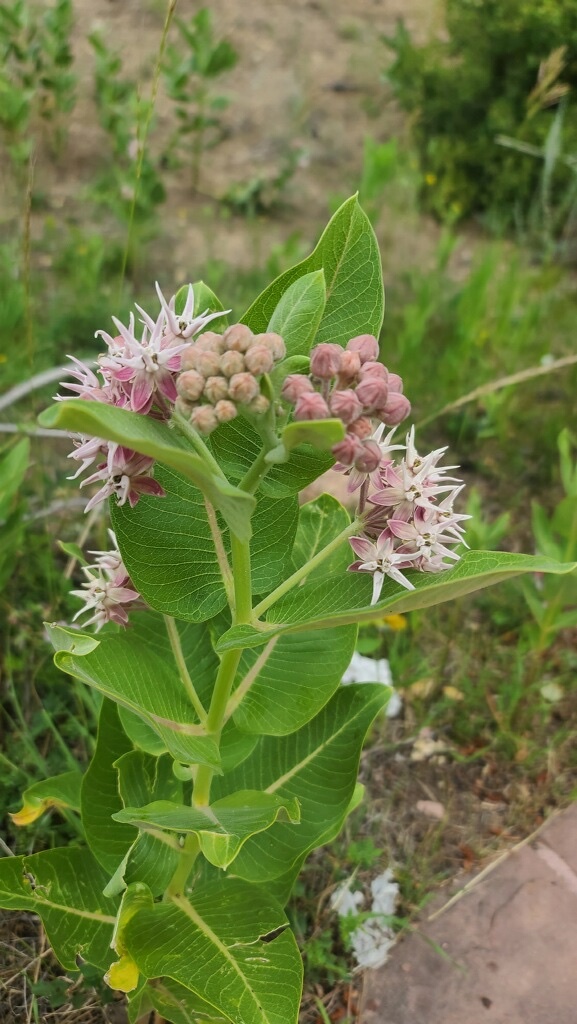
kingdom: Plantae
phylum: Tracheophyta
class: Magnoliopsida
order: Gentianales
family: Apocynaceae
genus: Asclepias
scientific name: Asclepias speciosa
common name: Showy milkweed
